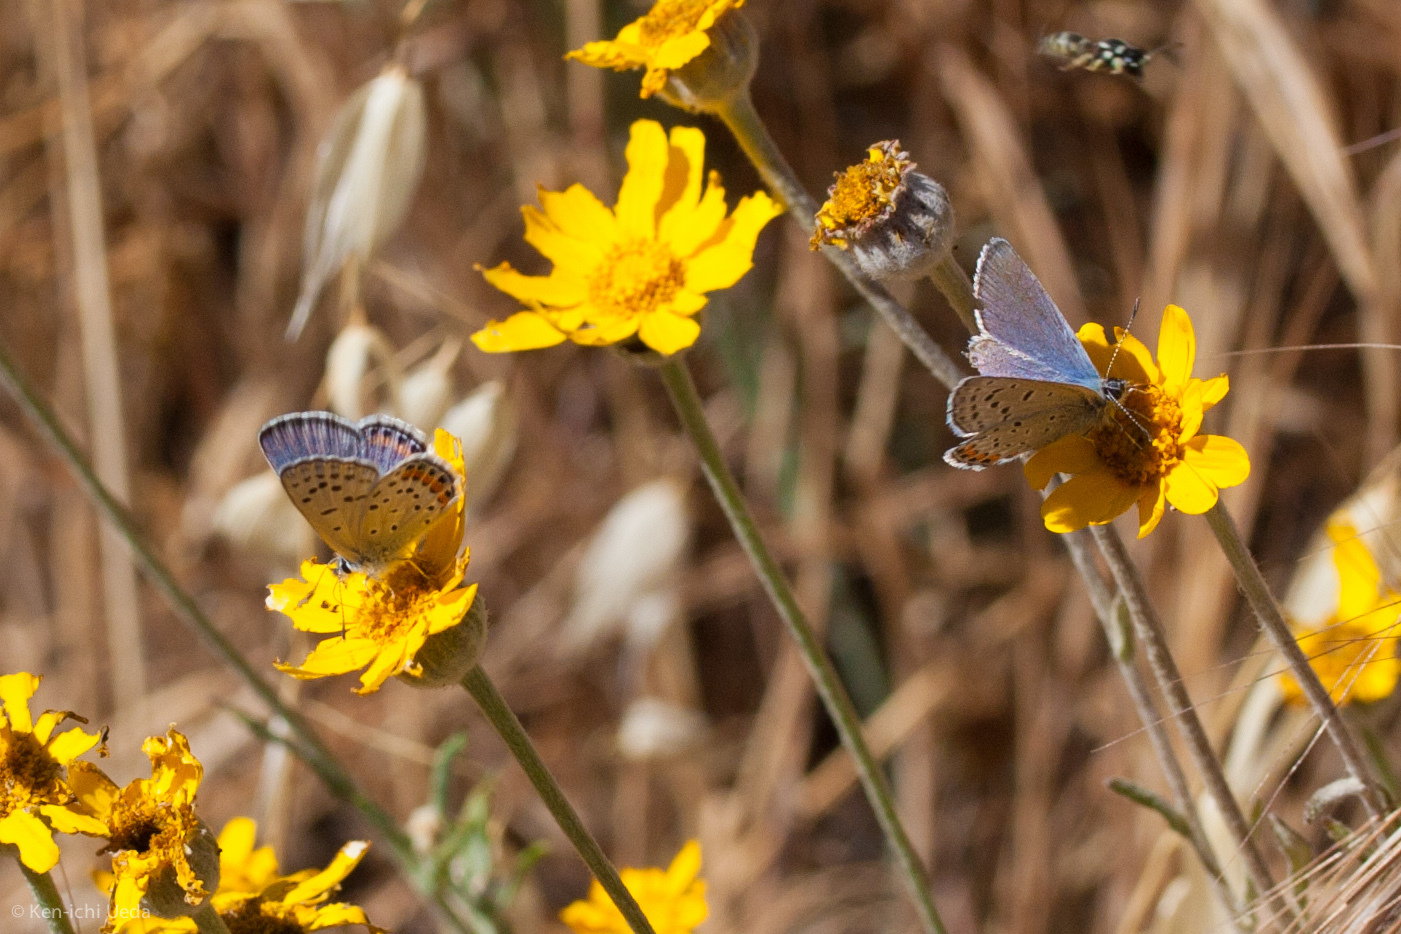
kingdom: Animalia
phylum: Arthropoda
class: Insecta
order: Lepidoptera
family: Lycaenidae
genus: Icaricia
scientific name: Icaricia acmon
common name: Acmon blue
